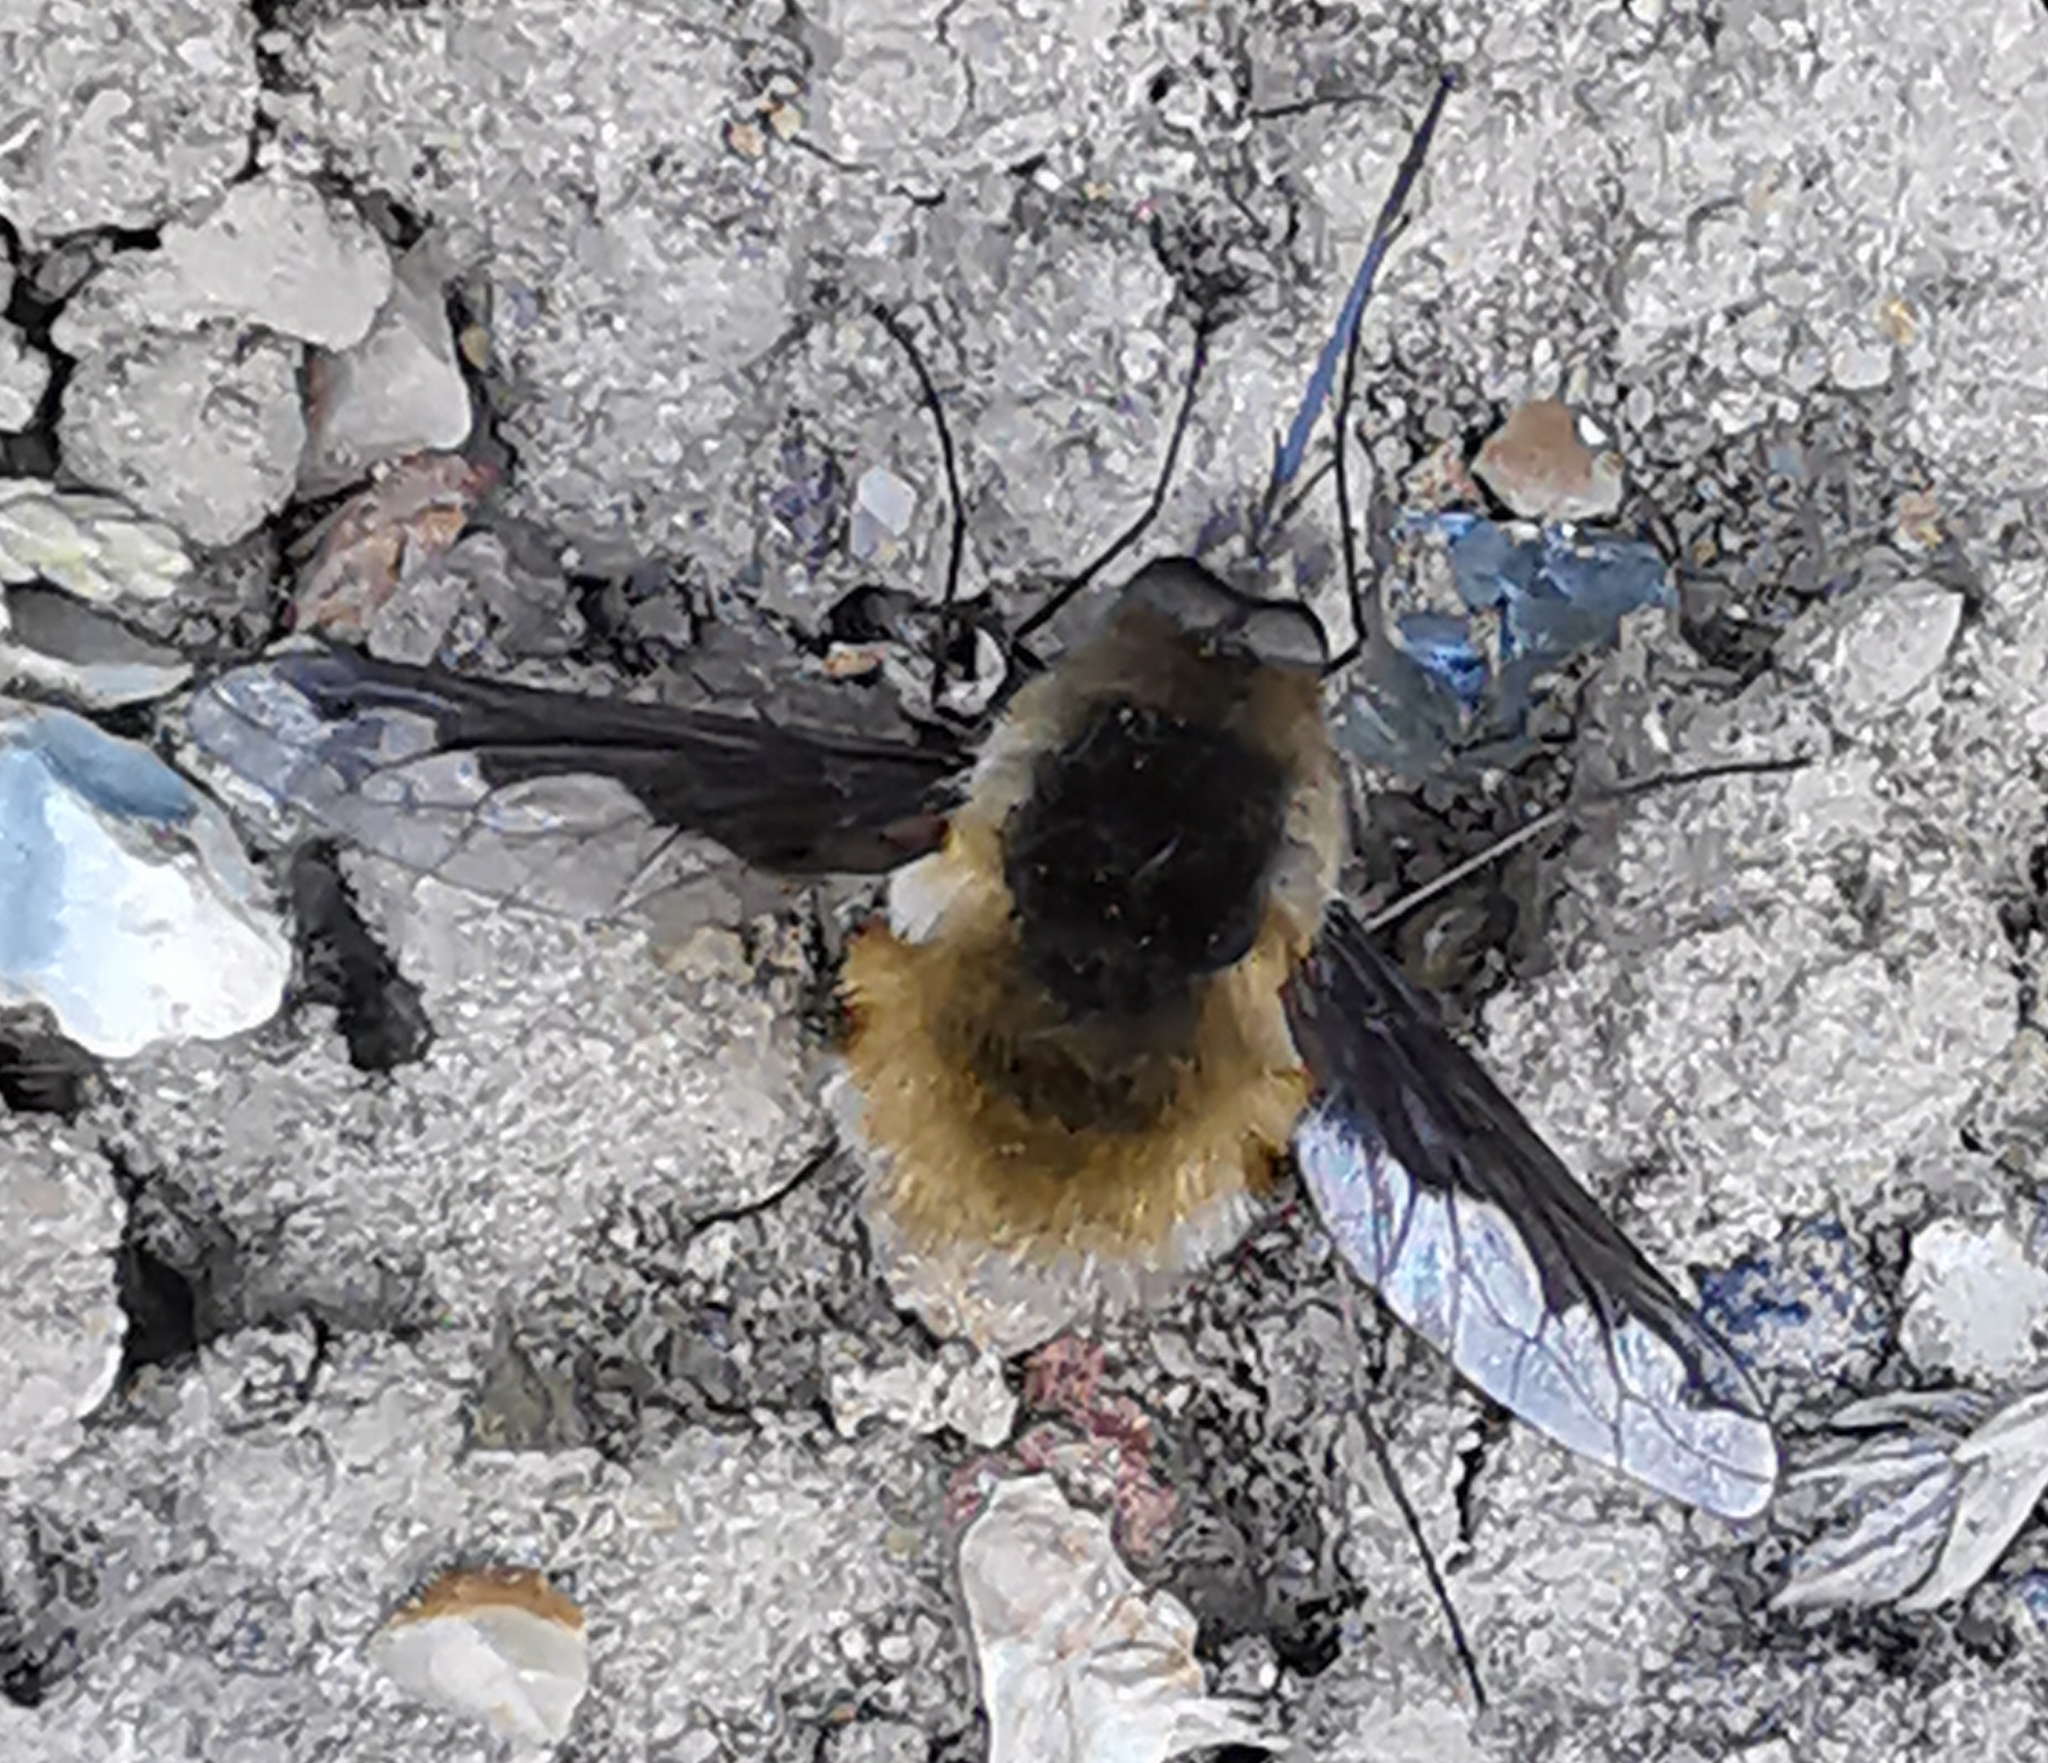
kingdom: Animalia
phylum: Arthropoda
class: Insecta
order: Diptera
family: Bombyliidae
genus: Bombylius
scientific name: Bombylius major
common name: Bee fly
